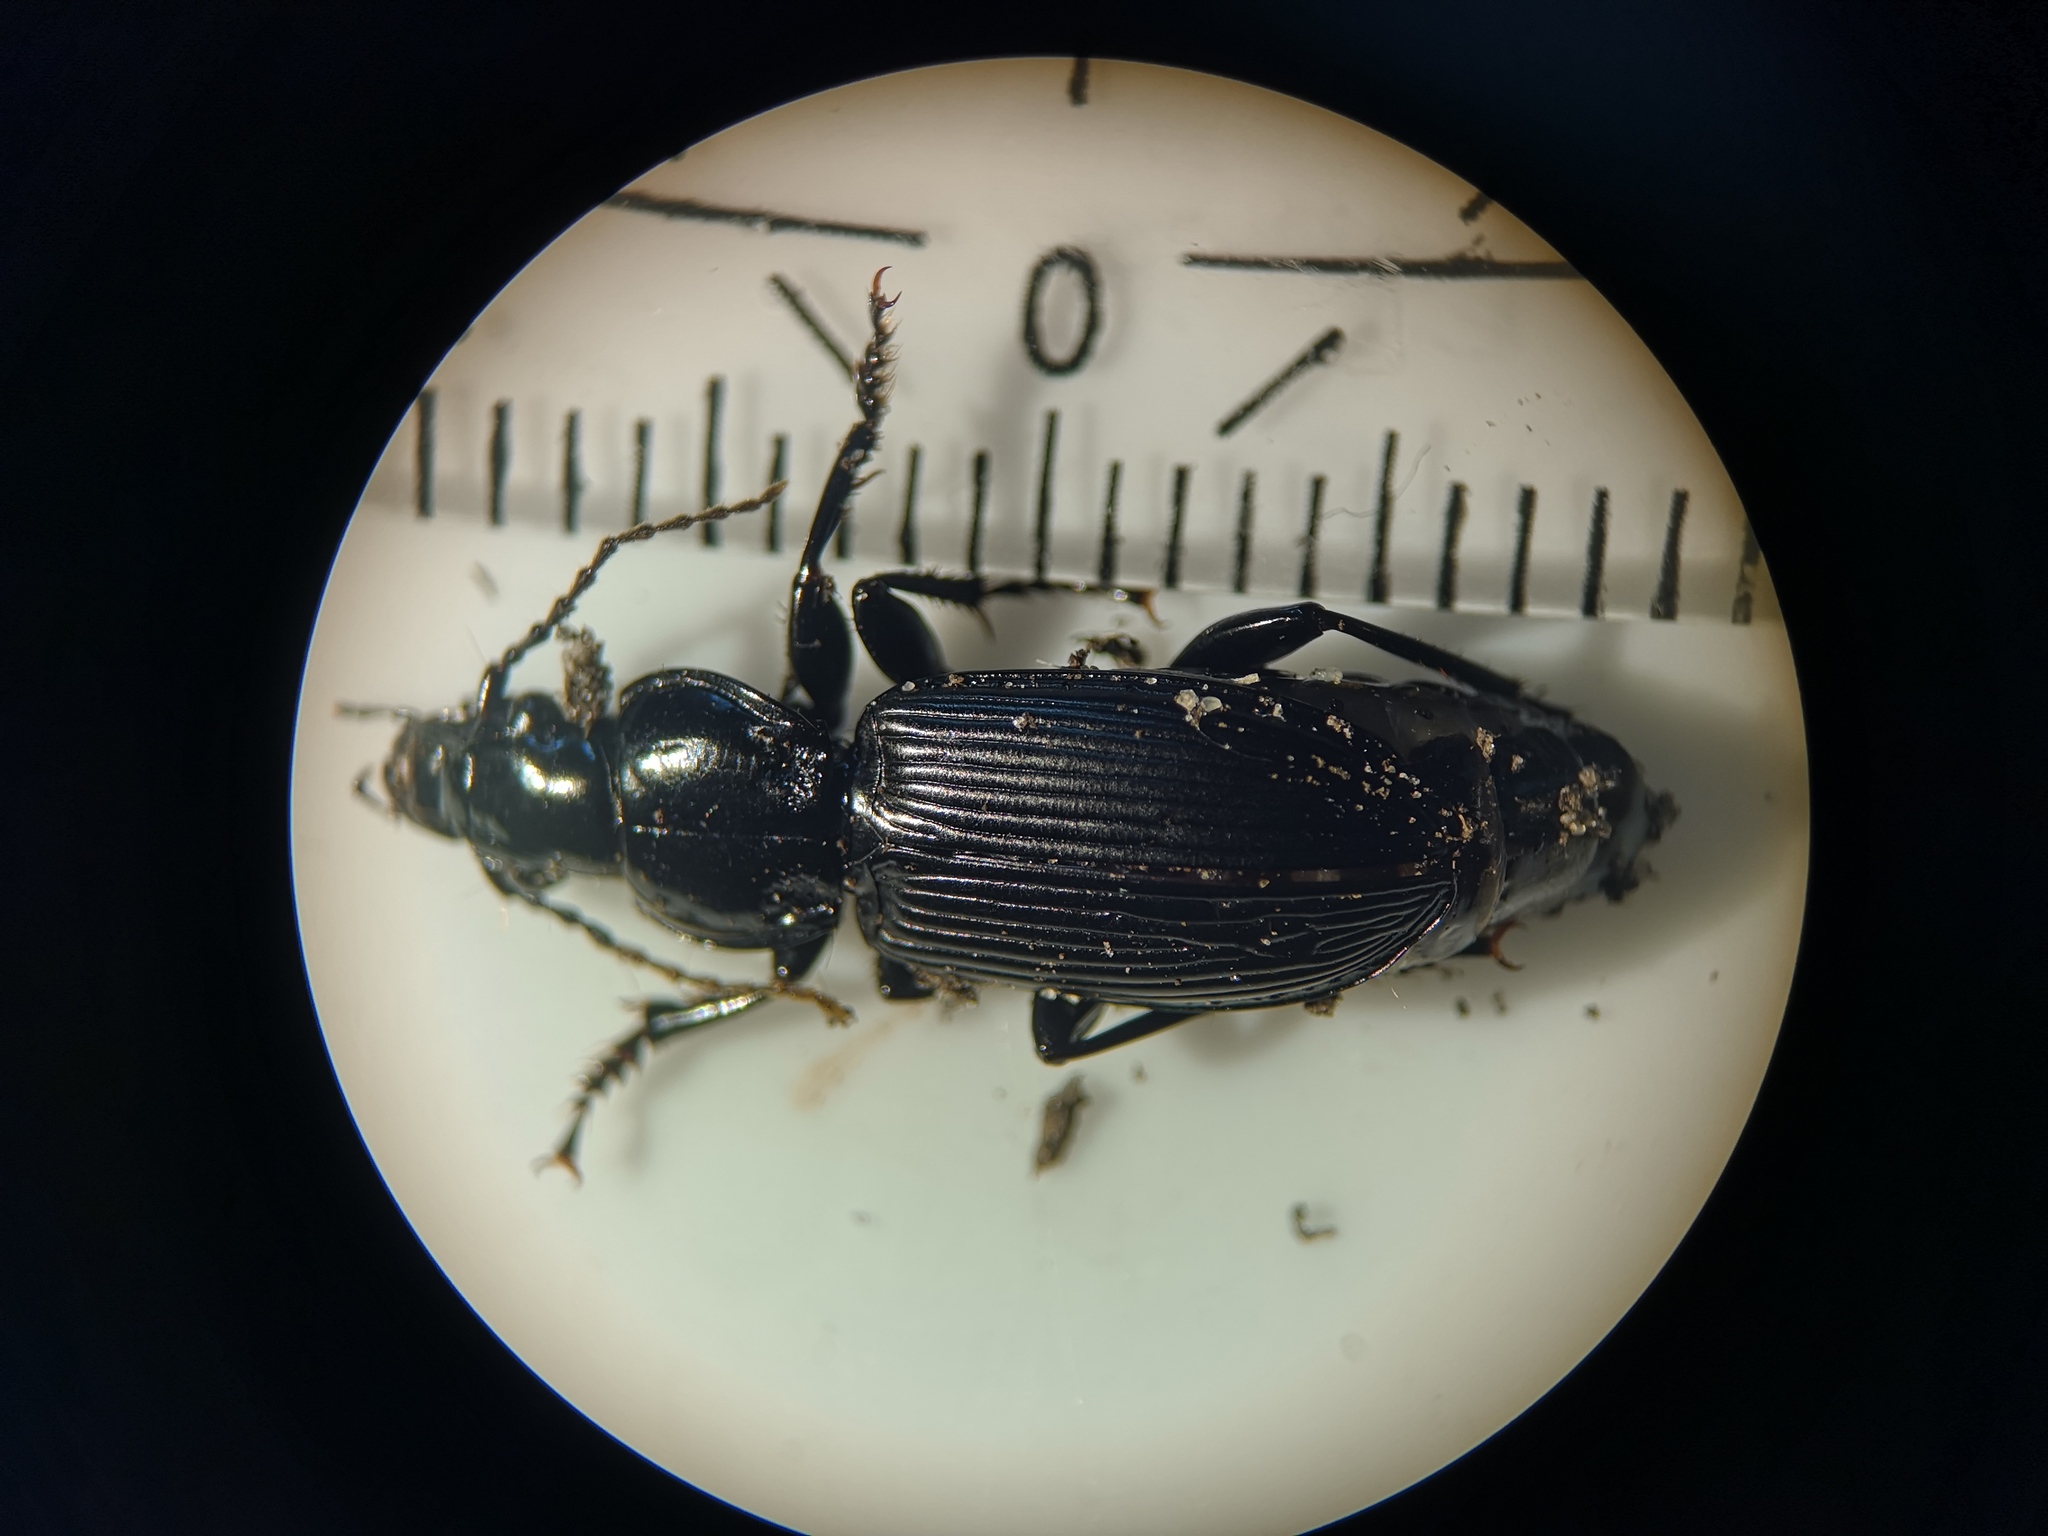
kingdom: Animalia
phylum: Arthropoda
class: Insecta
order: Coleoptera
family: Carabidae
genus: Pterostichus
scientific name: Pterostichus melanarius
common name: European dark harp ground beetle
